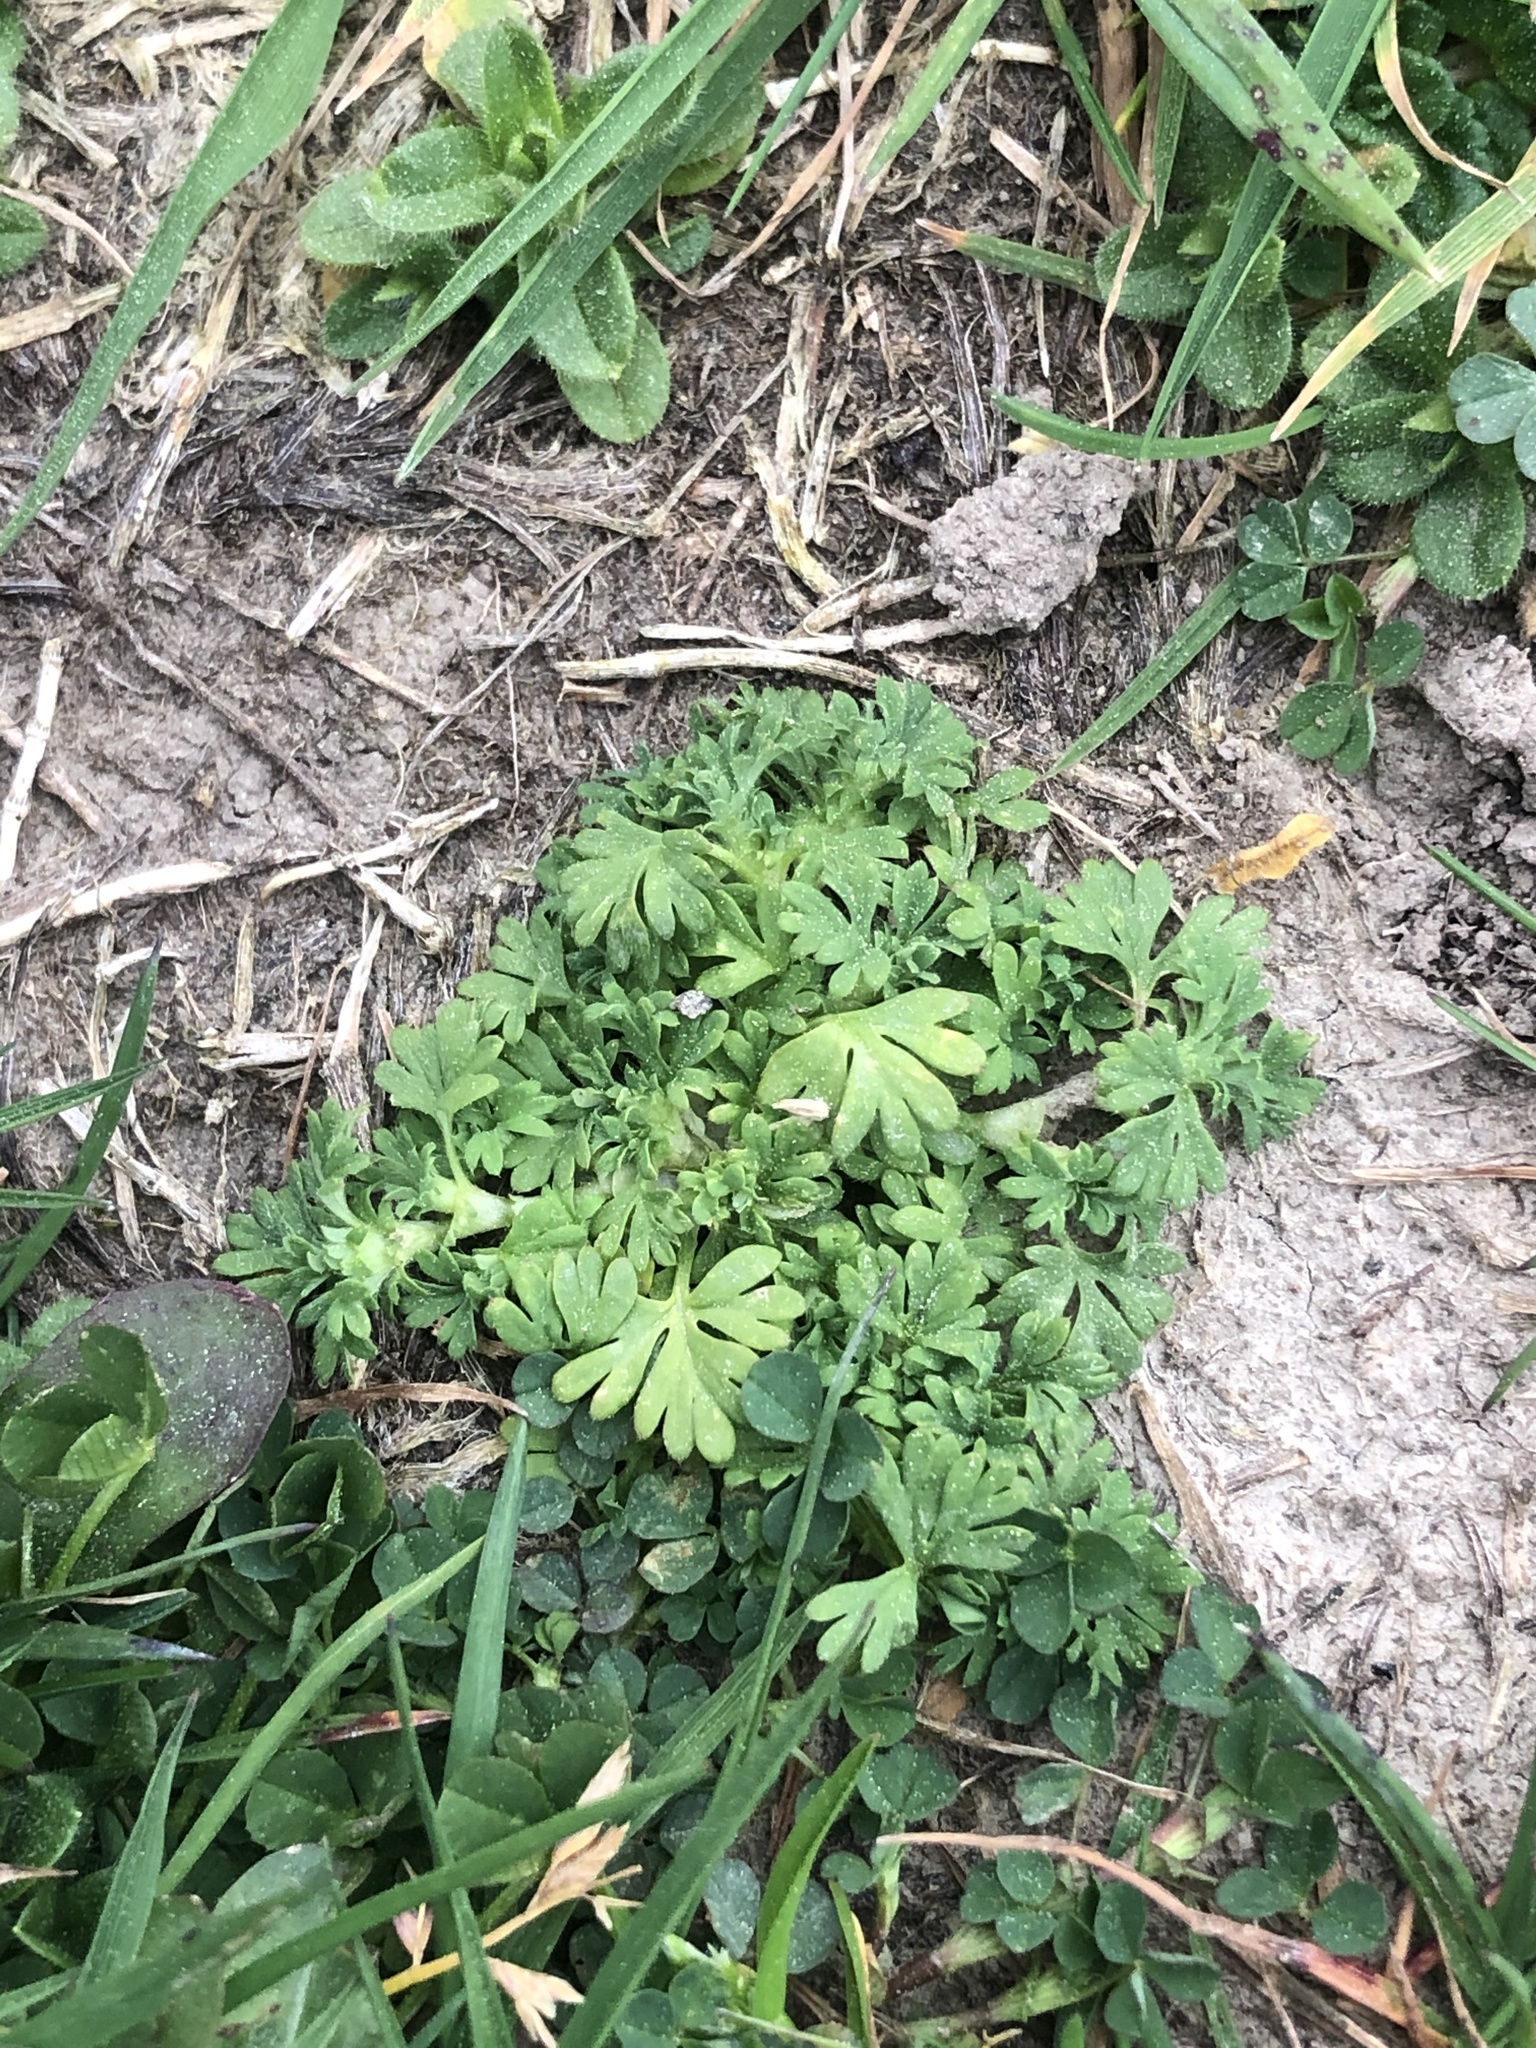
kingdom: Plantae
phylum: Tracheophyta
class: Magnoliopsida
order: Rosales
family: Rosaceae
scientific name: Rosaceae
